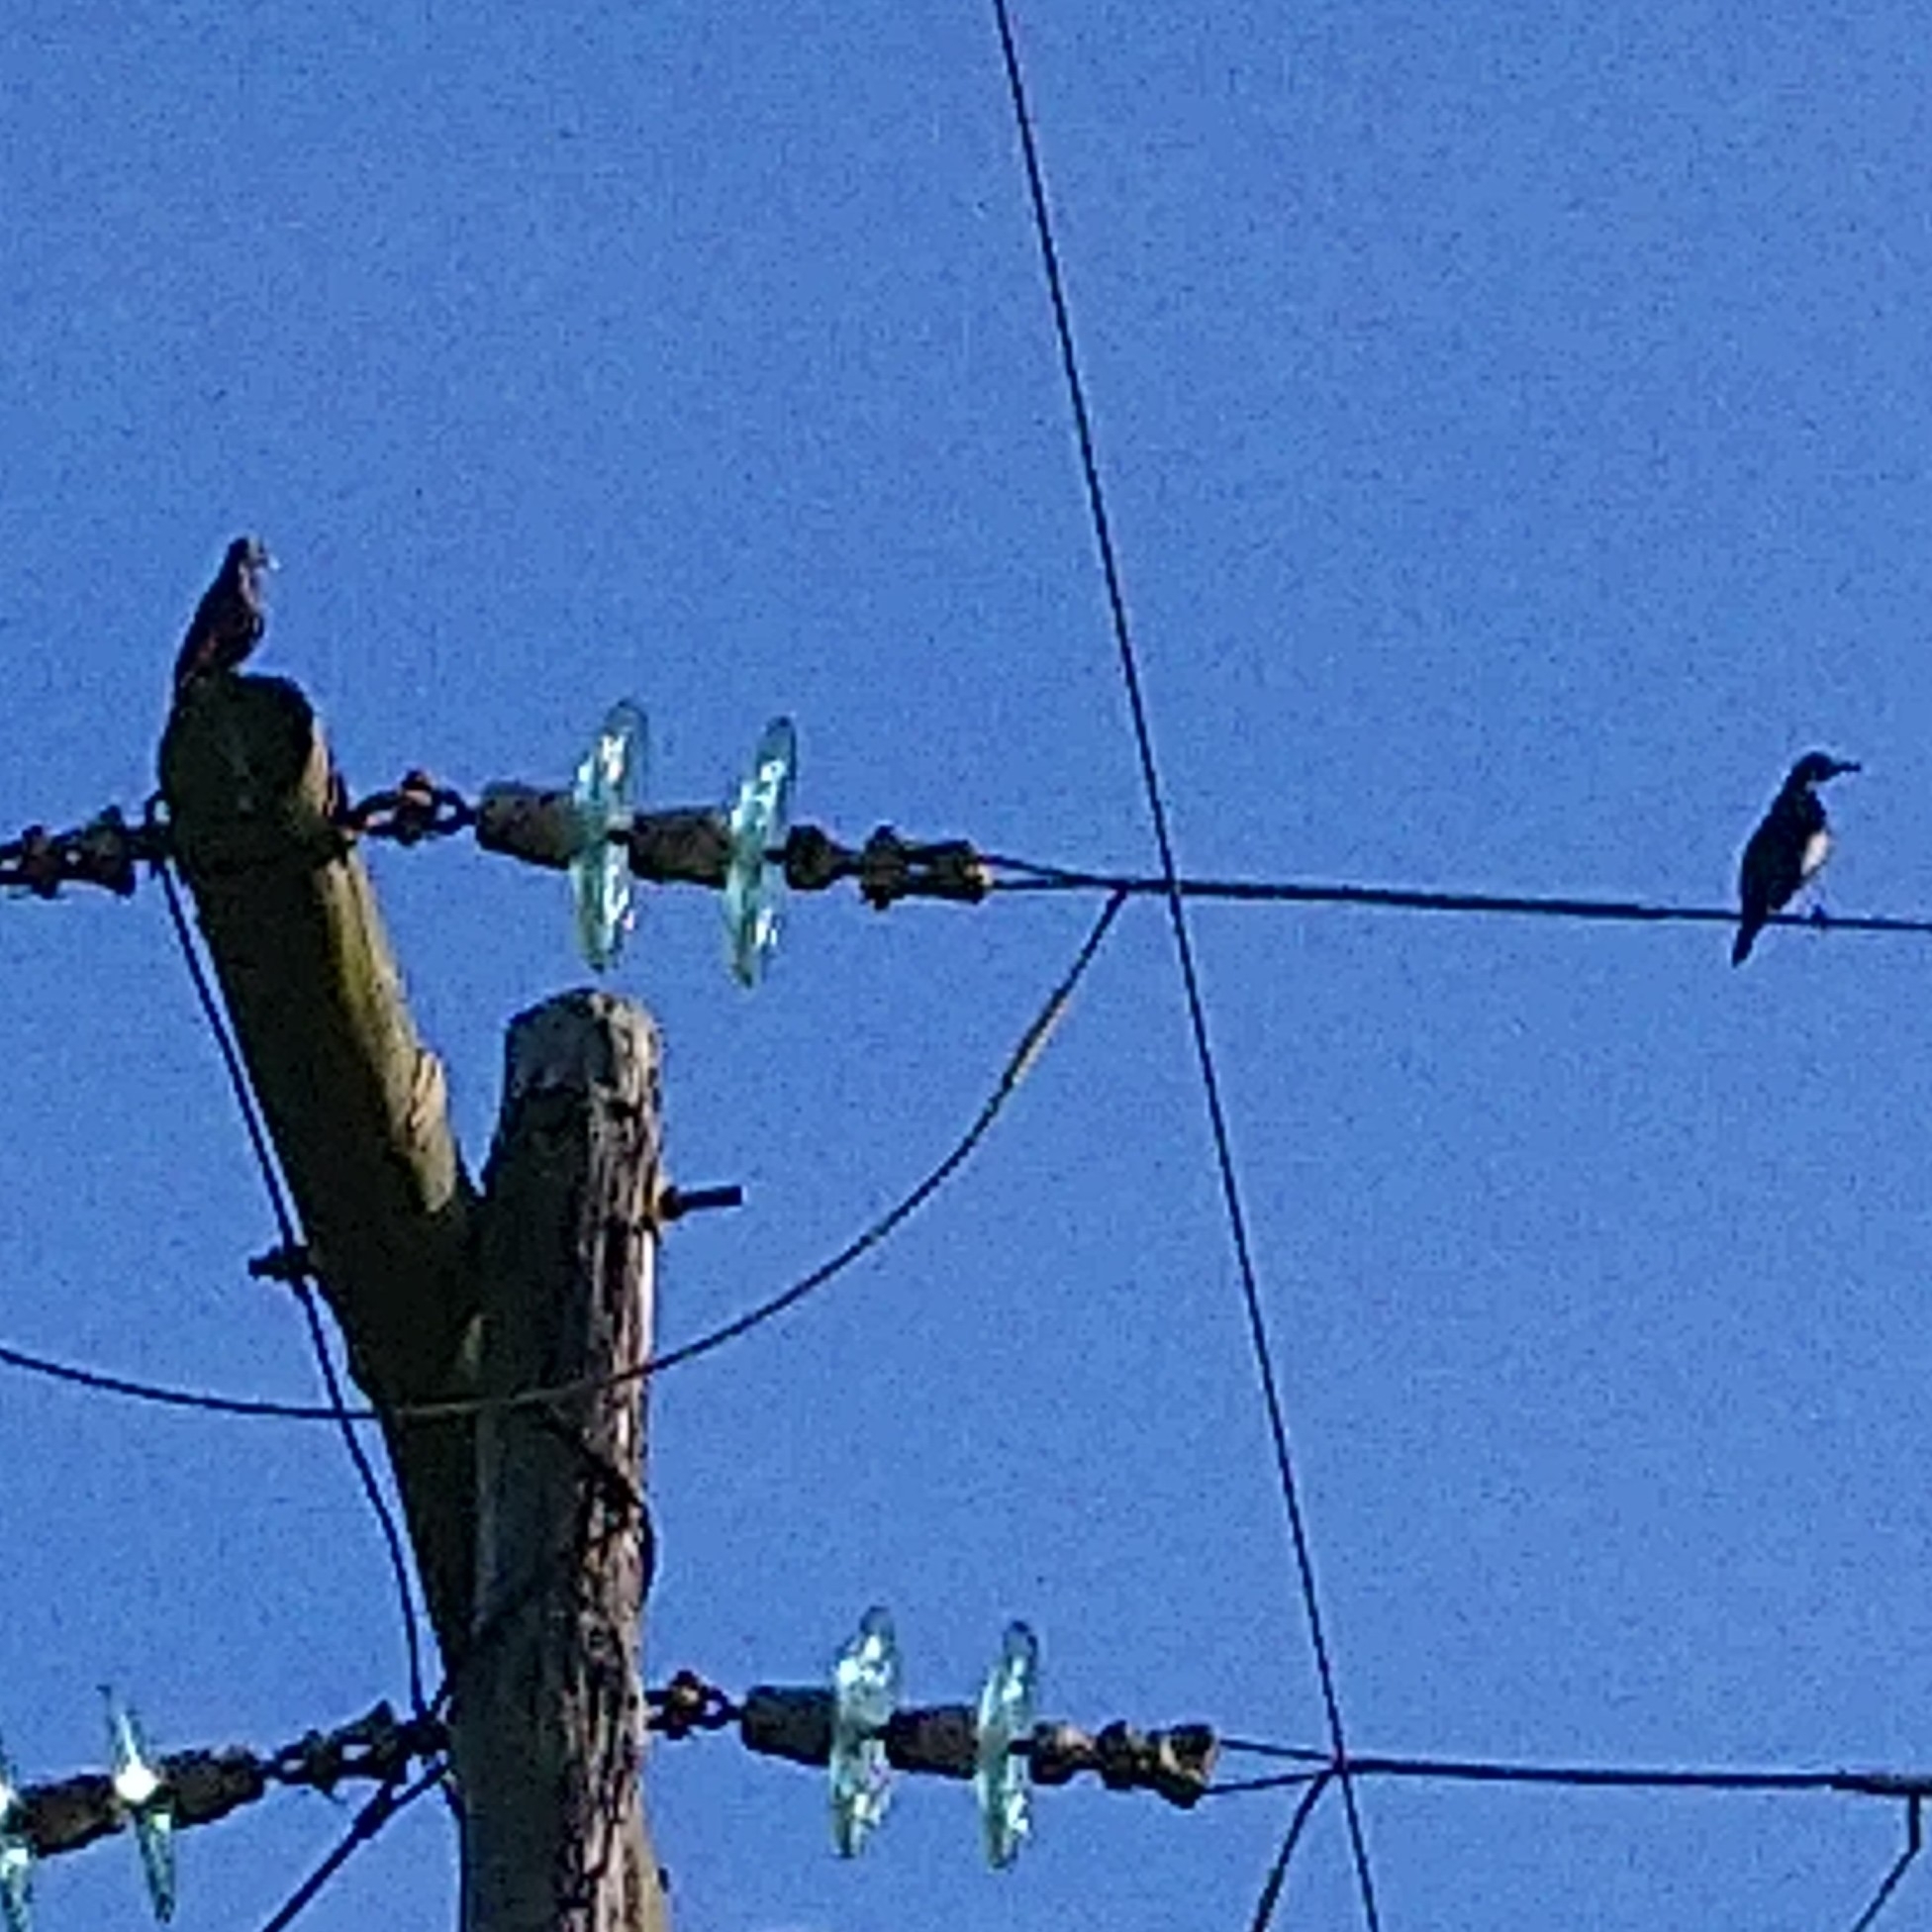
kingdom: Animalia
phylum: Chordata
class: Aves
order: Passeriformes
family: Sturnidae
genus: Onychognathus
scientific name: Onychognathus morio
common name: Red-winged starling
